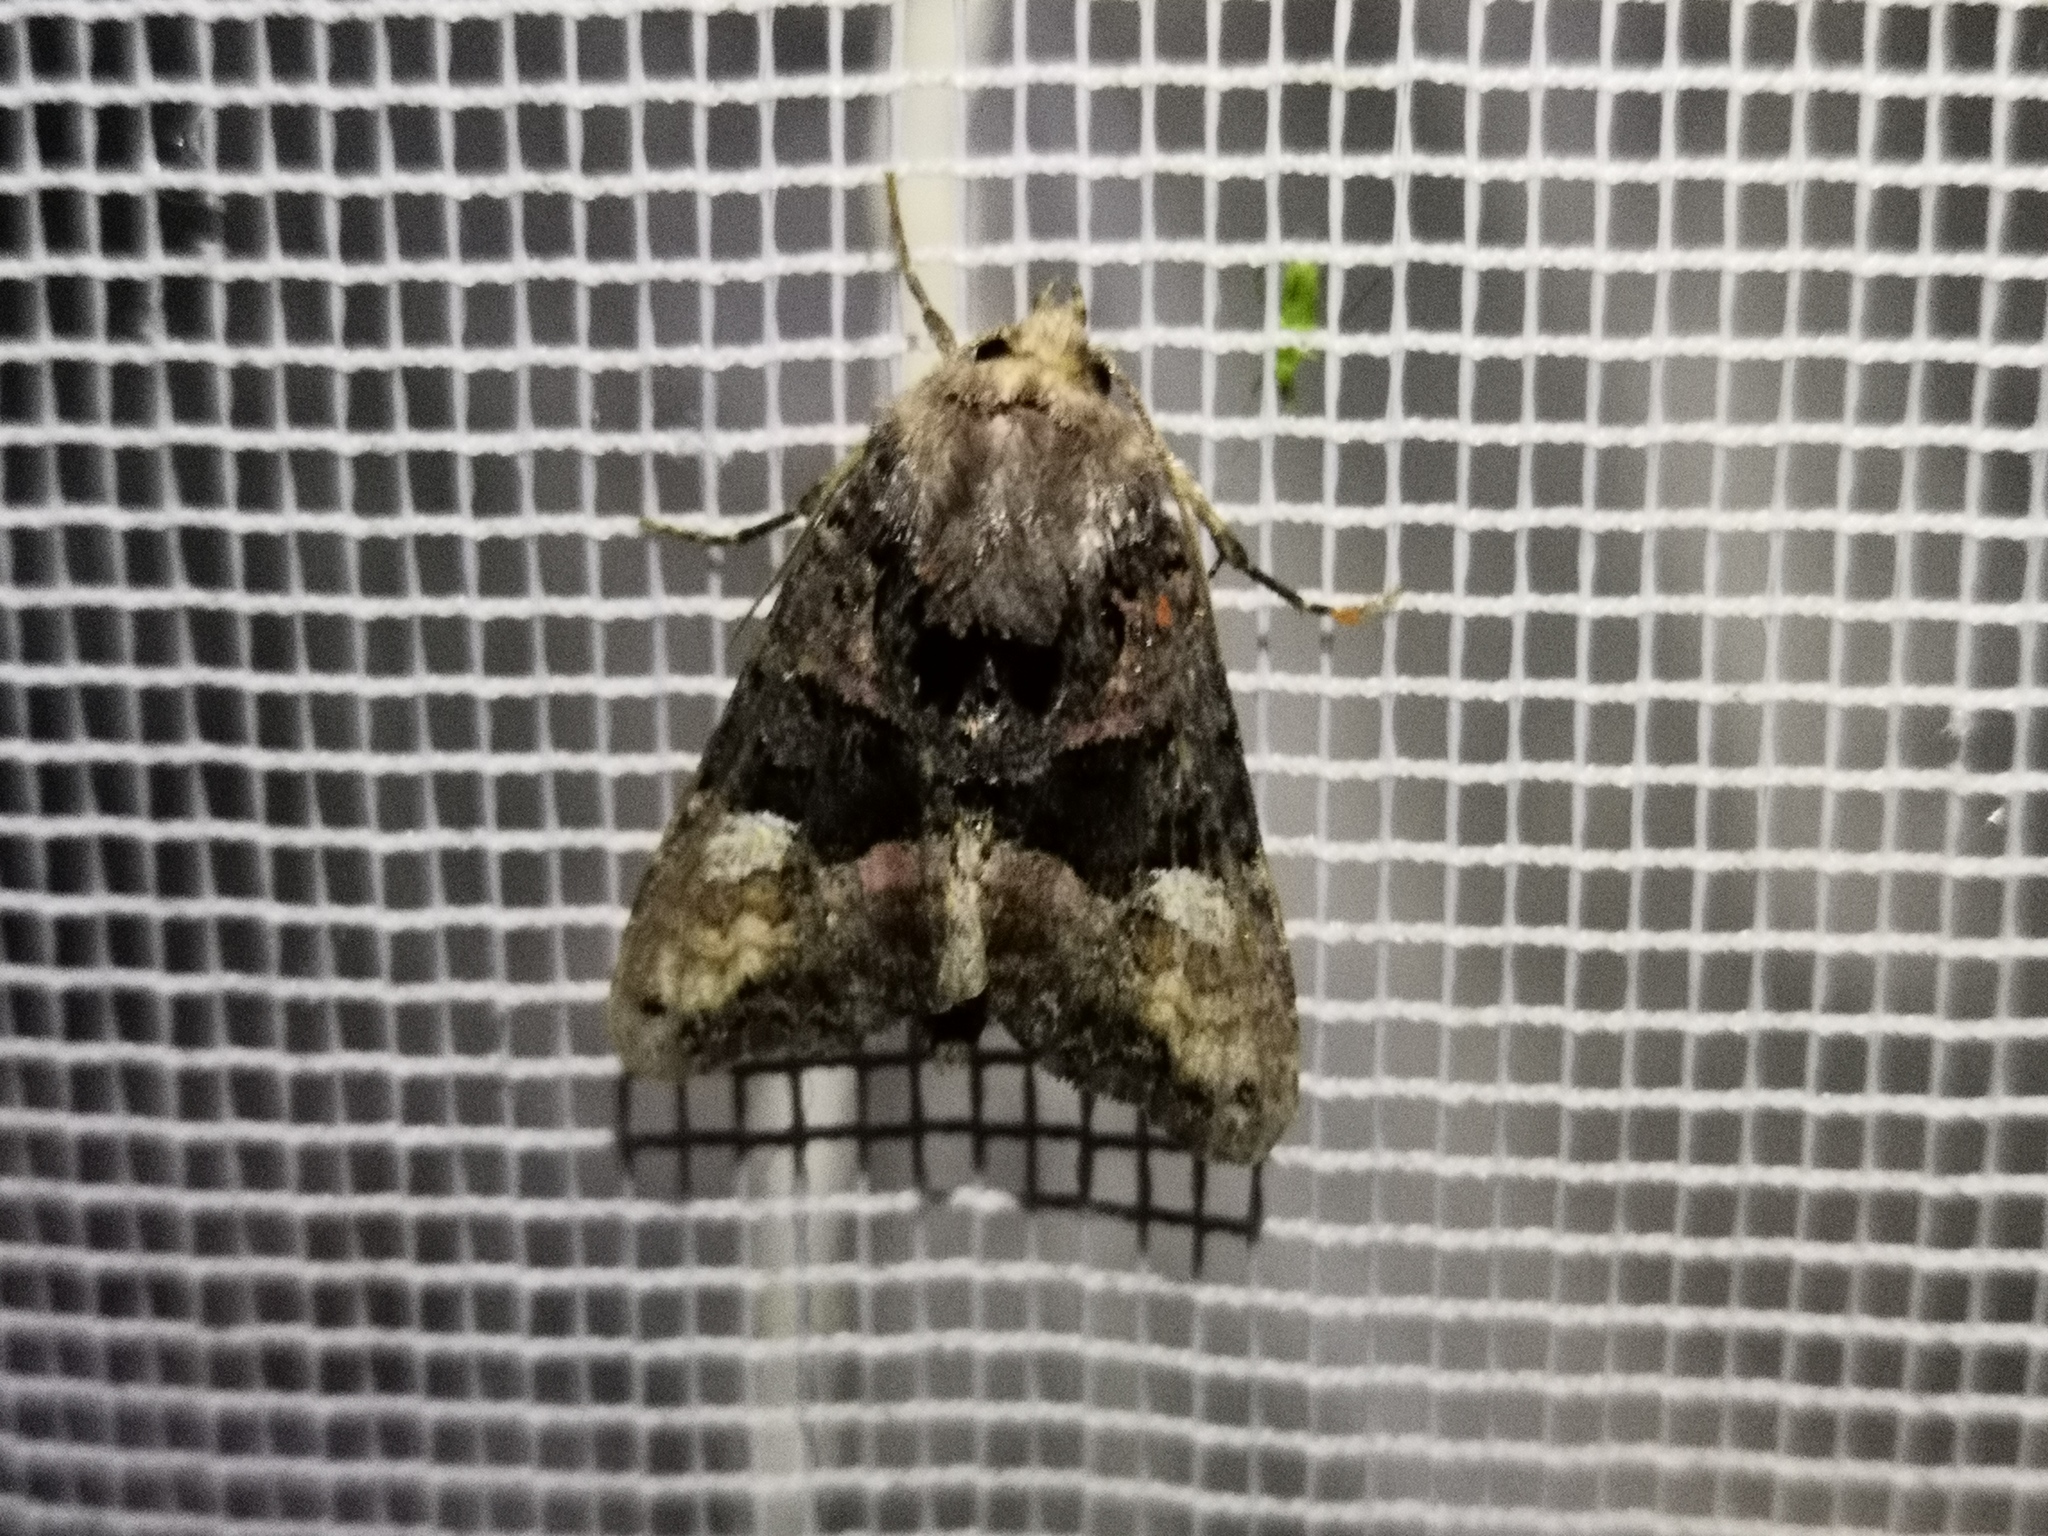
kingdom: Animalia
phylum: Arthropoda
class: Insecta
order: Lepidoptera
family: Noctuidae
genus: Euplexia
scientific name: Euplexia lucipara
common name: Small angle shades
